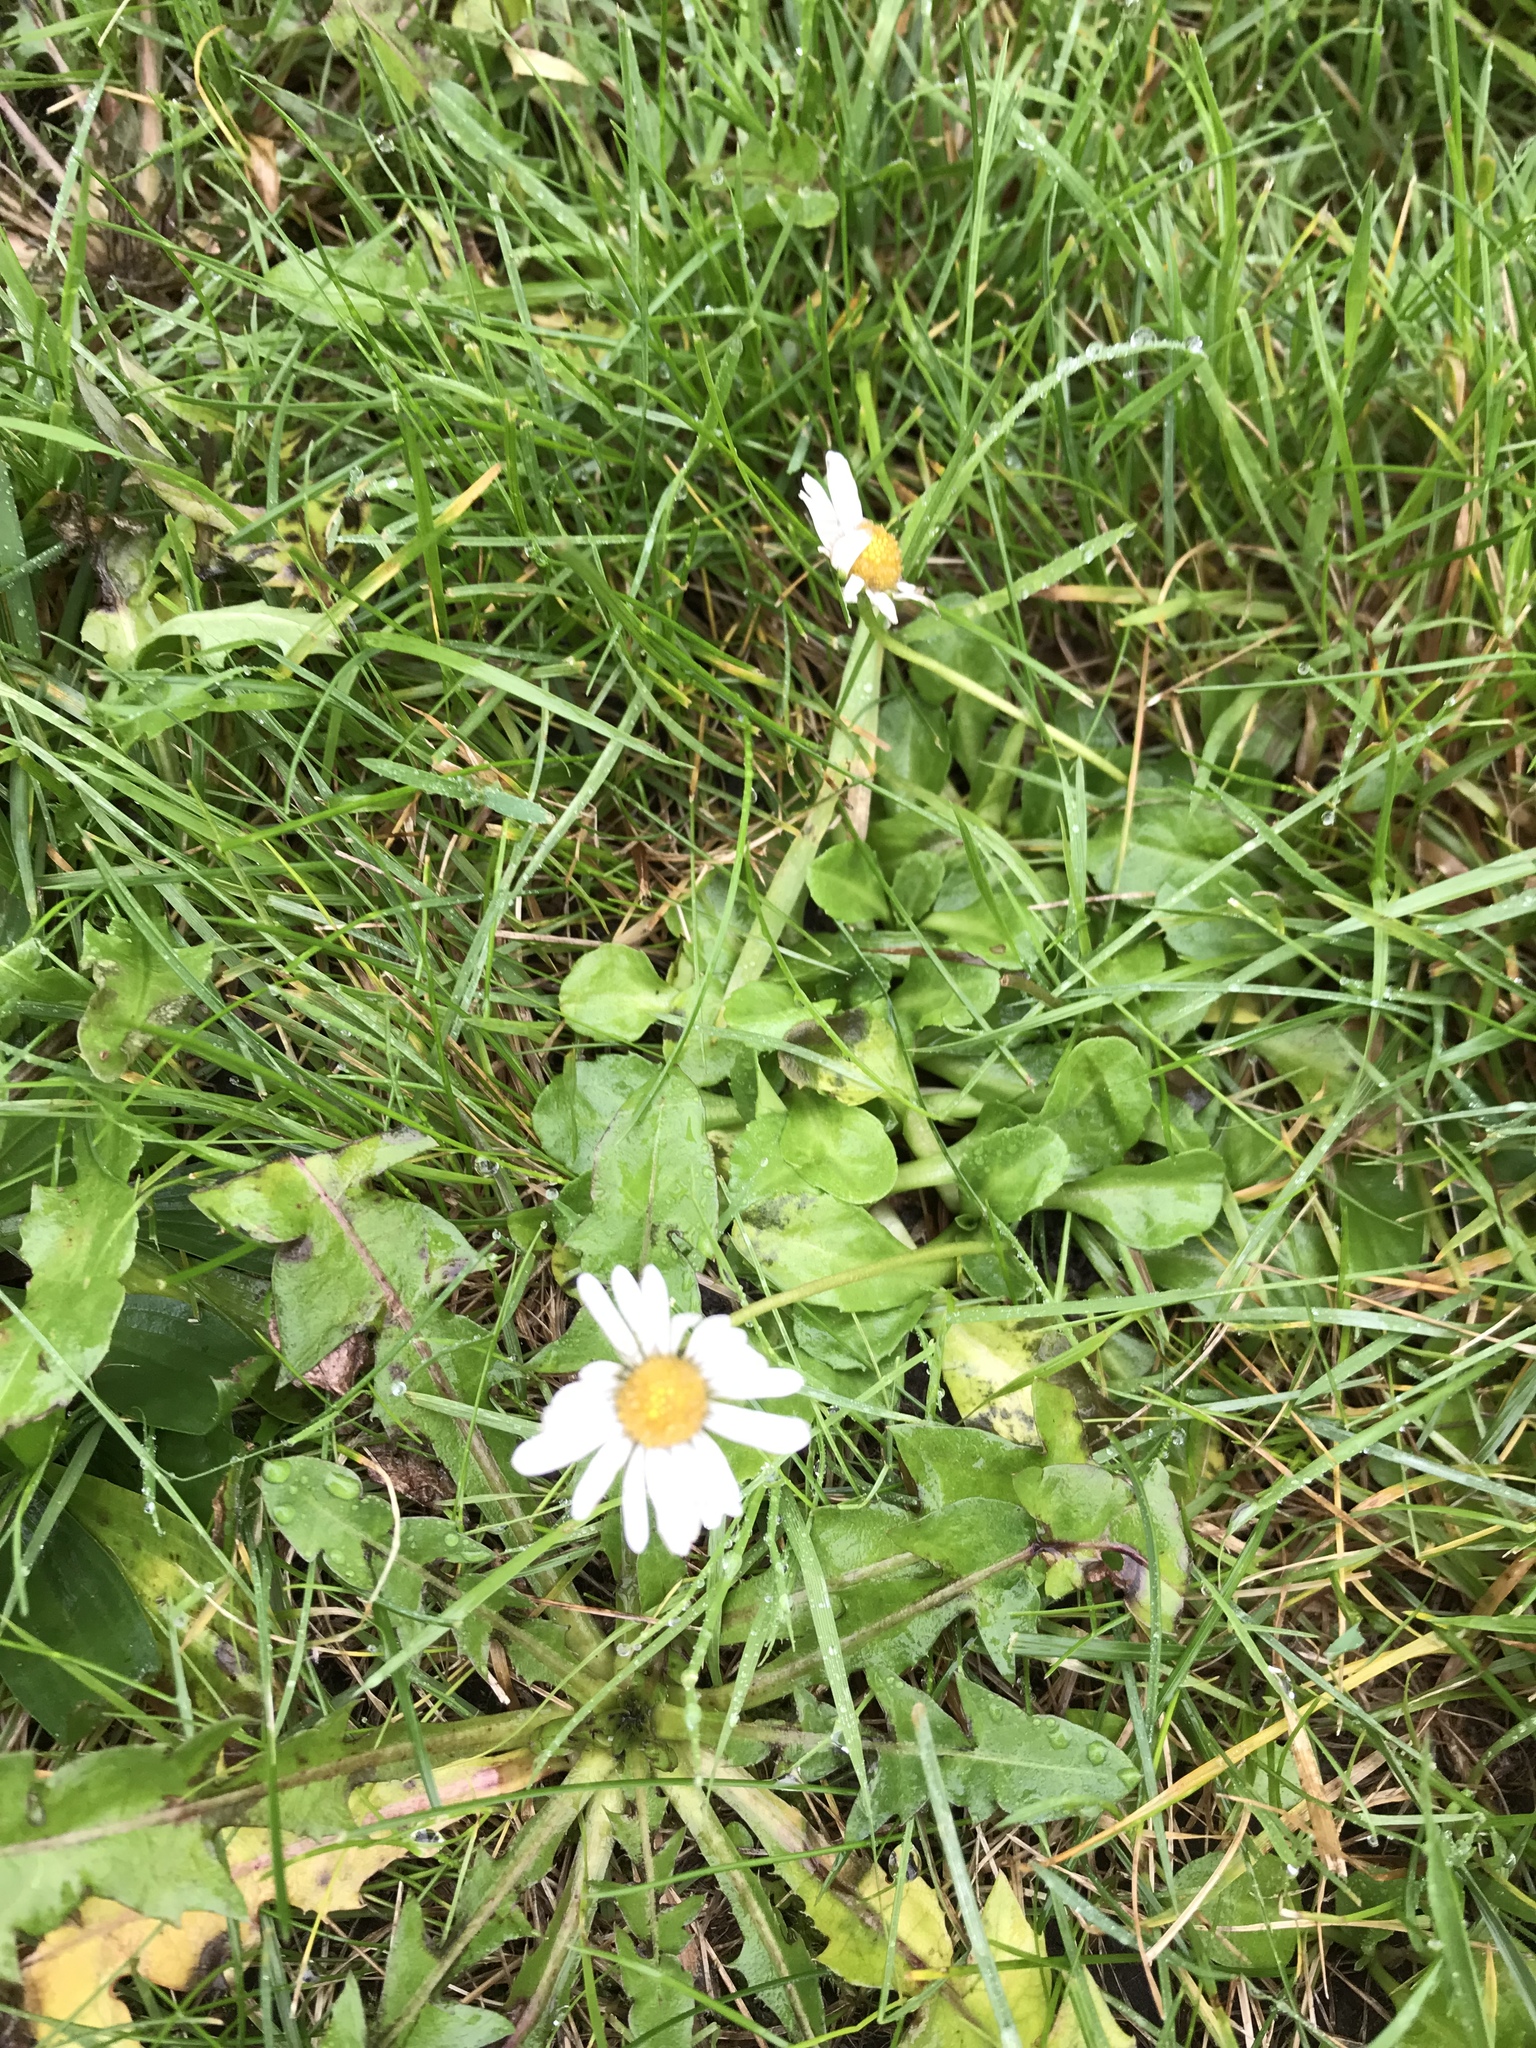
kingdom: Plantae
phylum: Tracheophyta
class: Magnoliopsida
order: Asterales
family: Asteraceae
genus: Bellis
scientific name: Bellis perennis
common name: Lawndaisy
